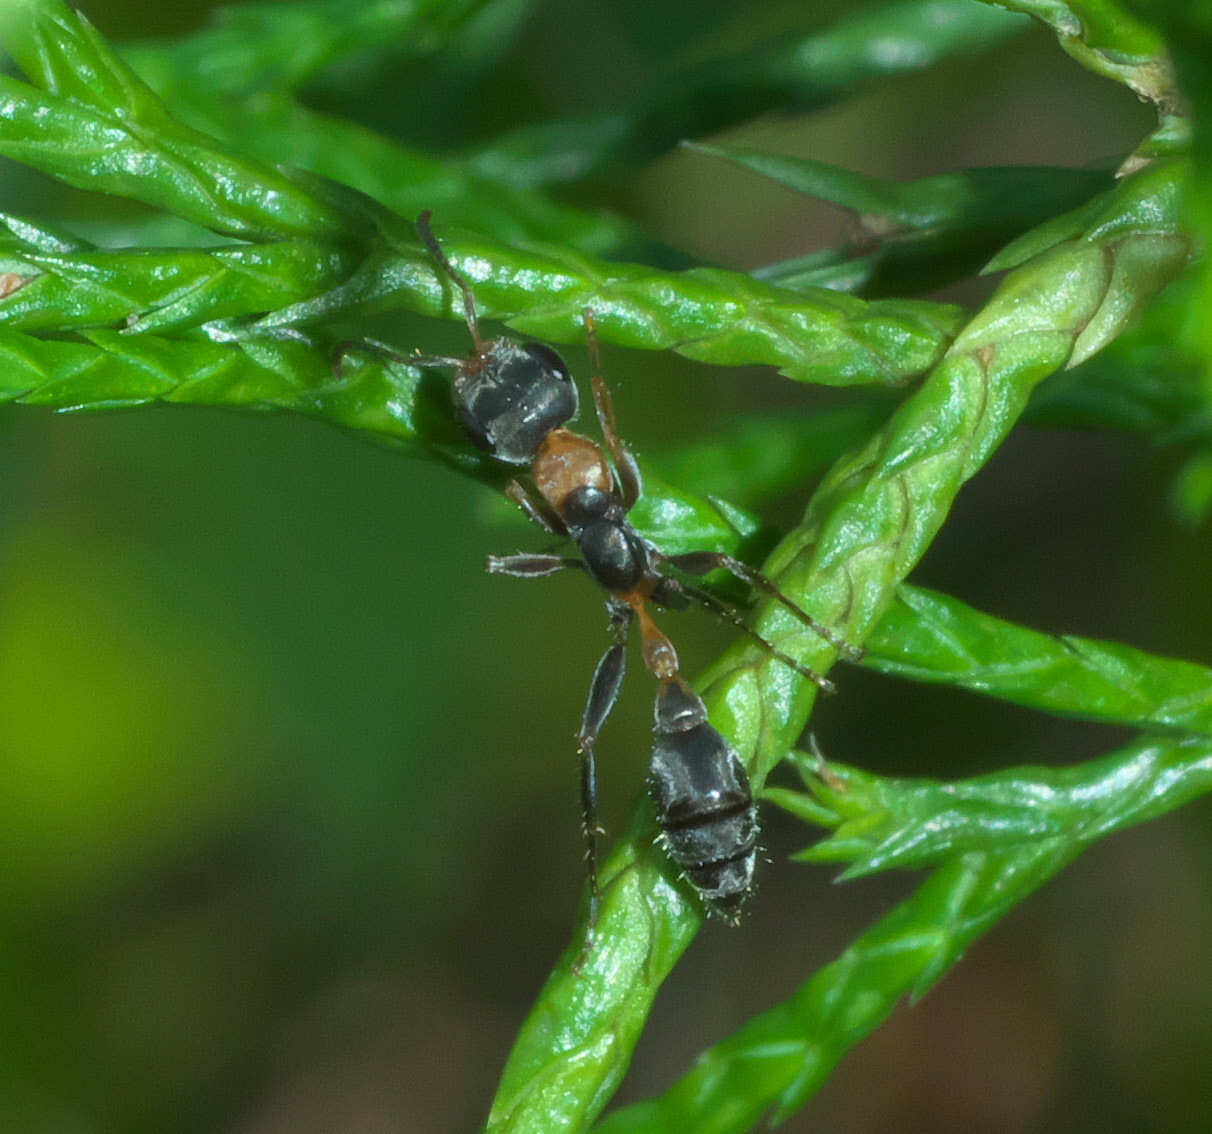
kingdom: Animalia
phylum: Arthropoda
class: Insecta
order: Hymenoptera
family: Formicidae
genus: Pseudomyrmex
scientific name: Pseudomyrmex gracilis
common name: Graceful twig ant
